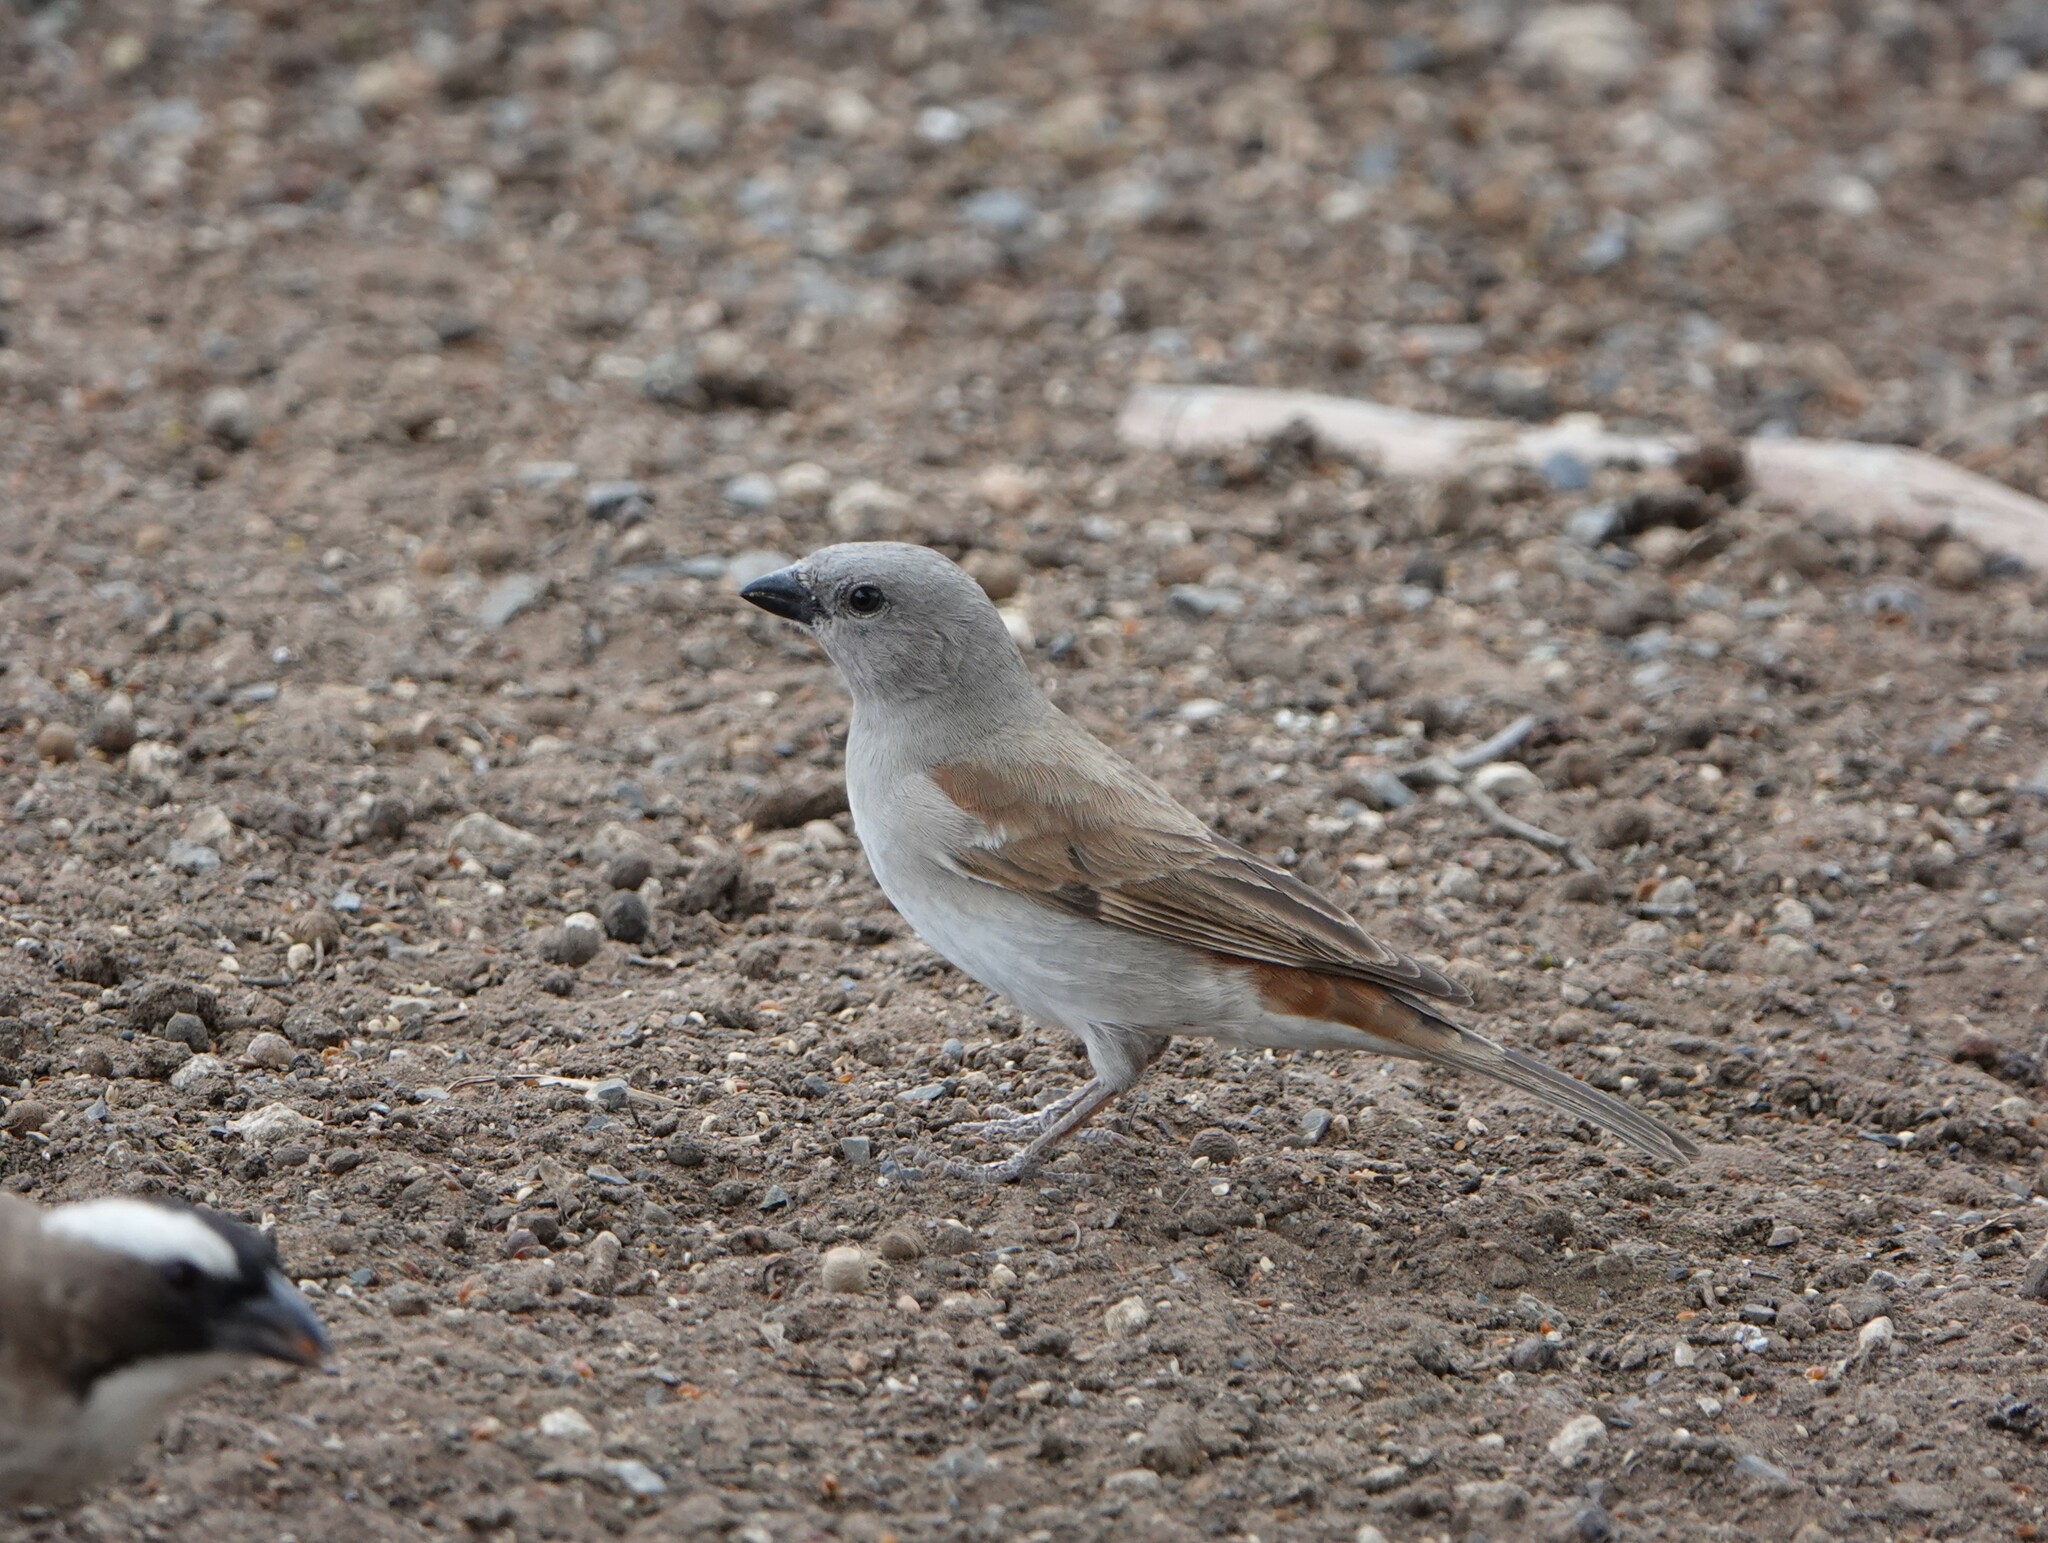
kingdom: Animalia
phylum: Chordata
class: Aves
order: Passeriformes
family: Passeridae
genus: Passer
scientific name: Passer diffusus
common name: Southern grey-headed sparrow
